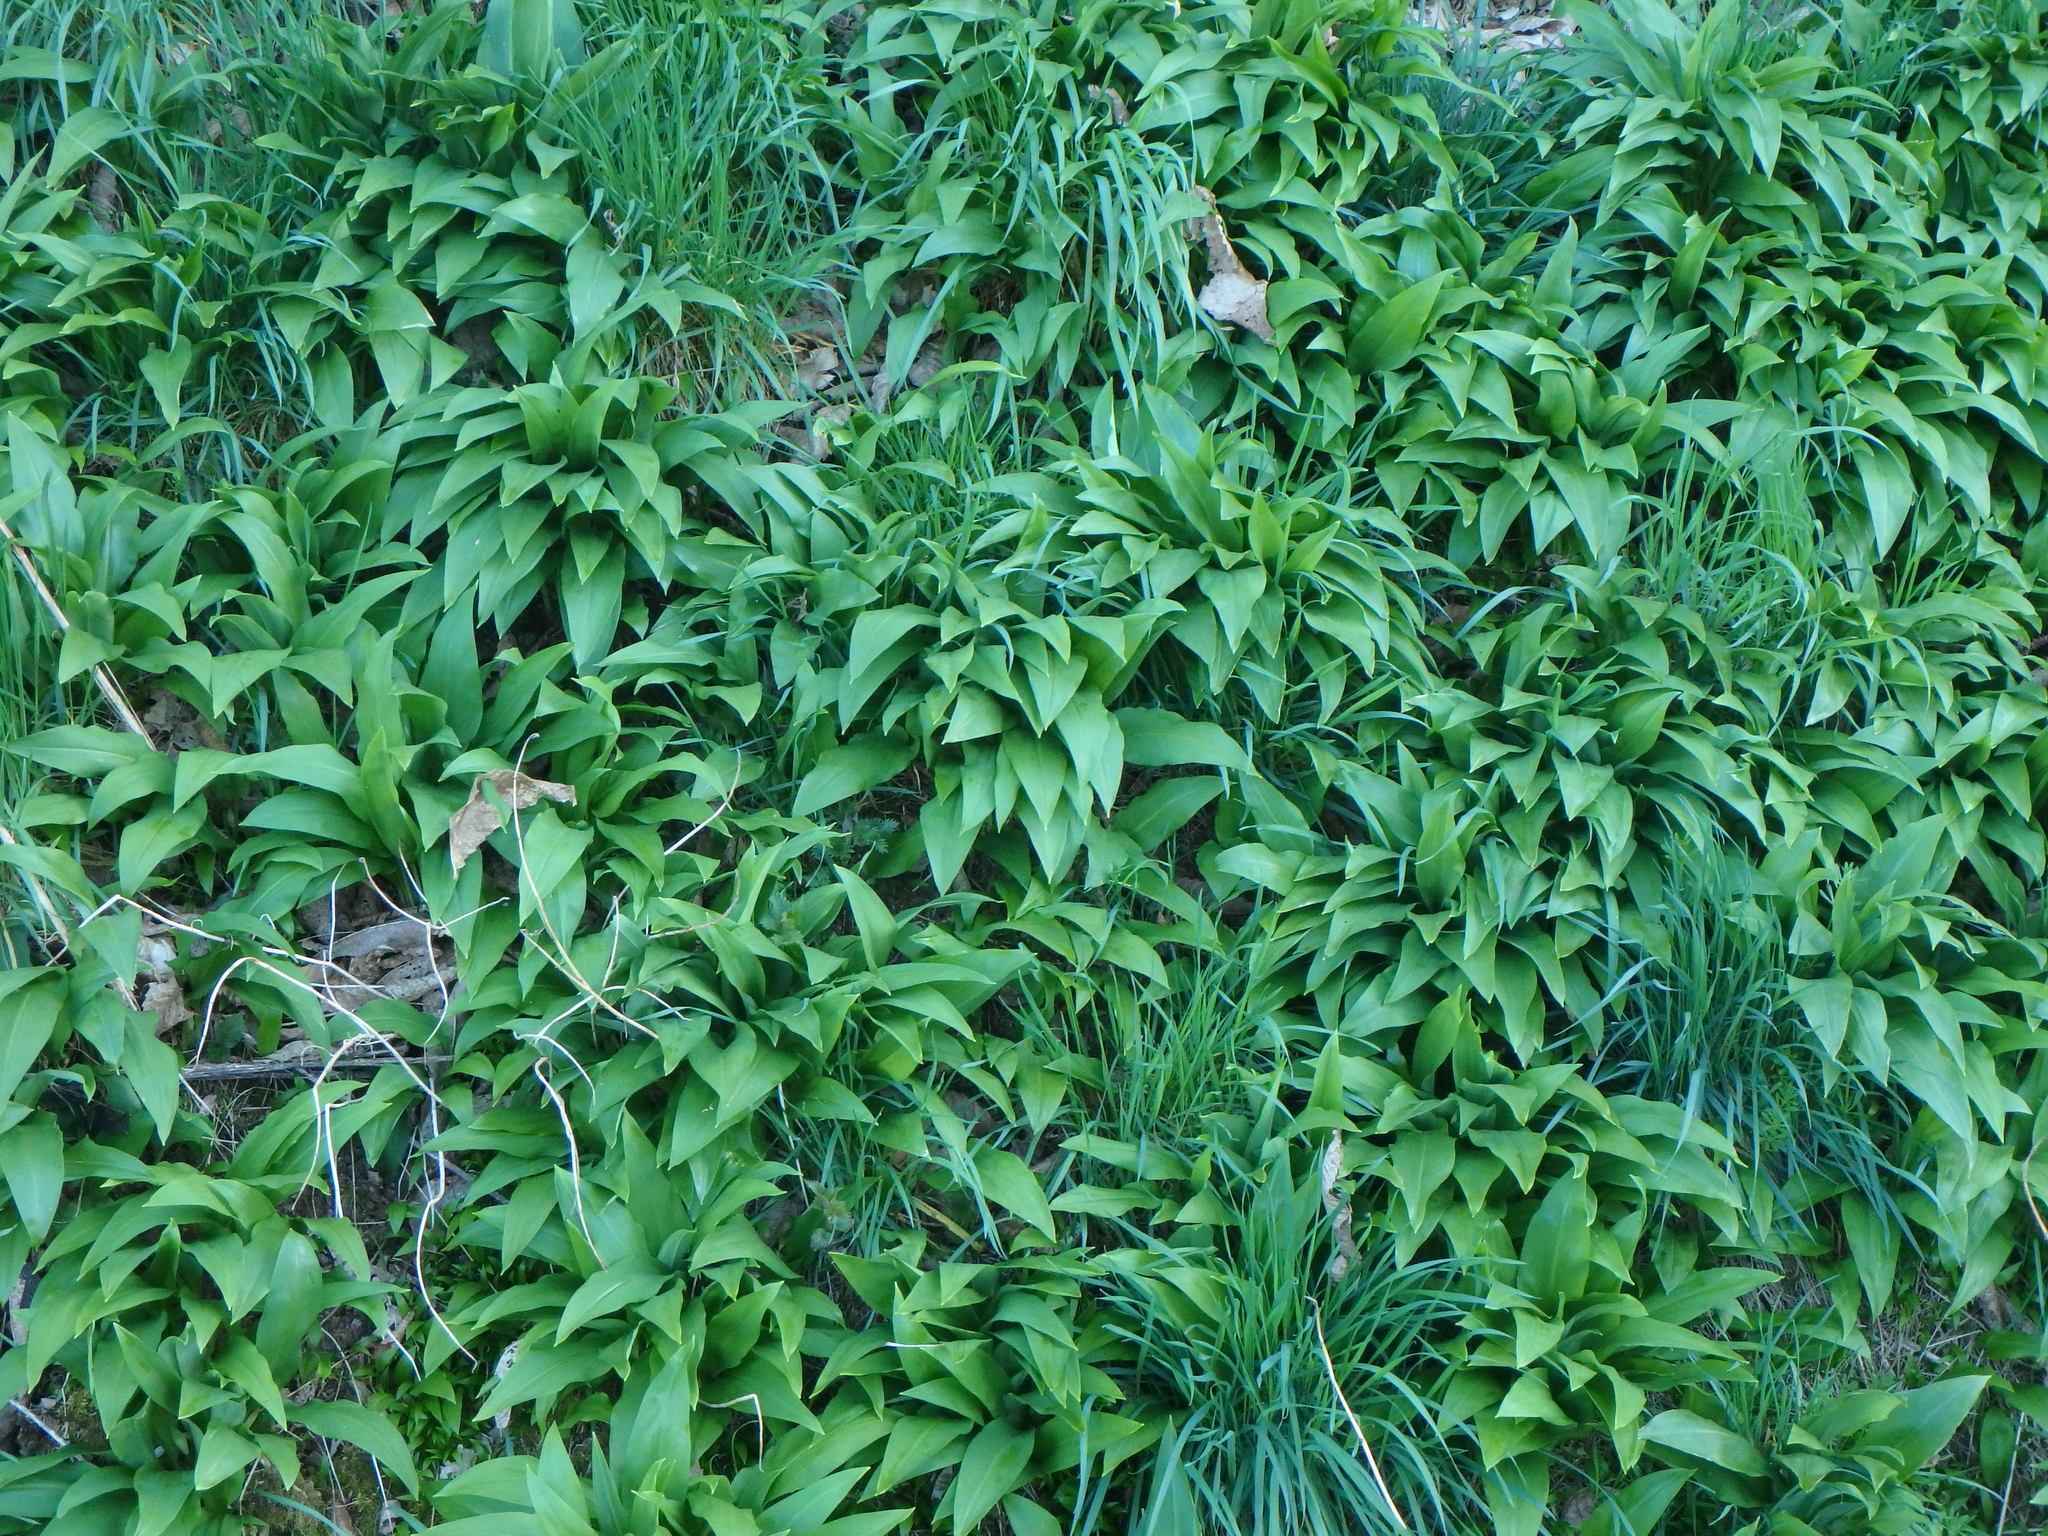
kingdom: Plantae
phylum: Tracheophyta
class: Liliopsida
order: Asparagales
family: Amaryllidaceae
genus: Allium
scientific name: Allium ursinum
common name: Ramsons
